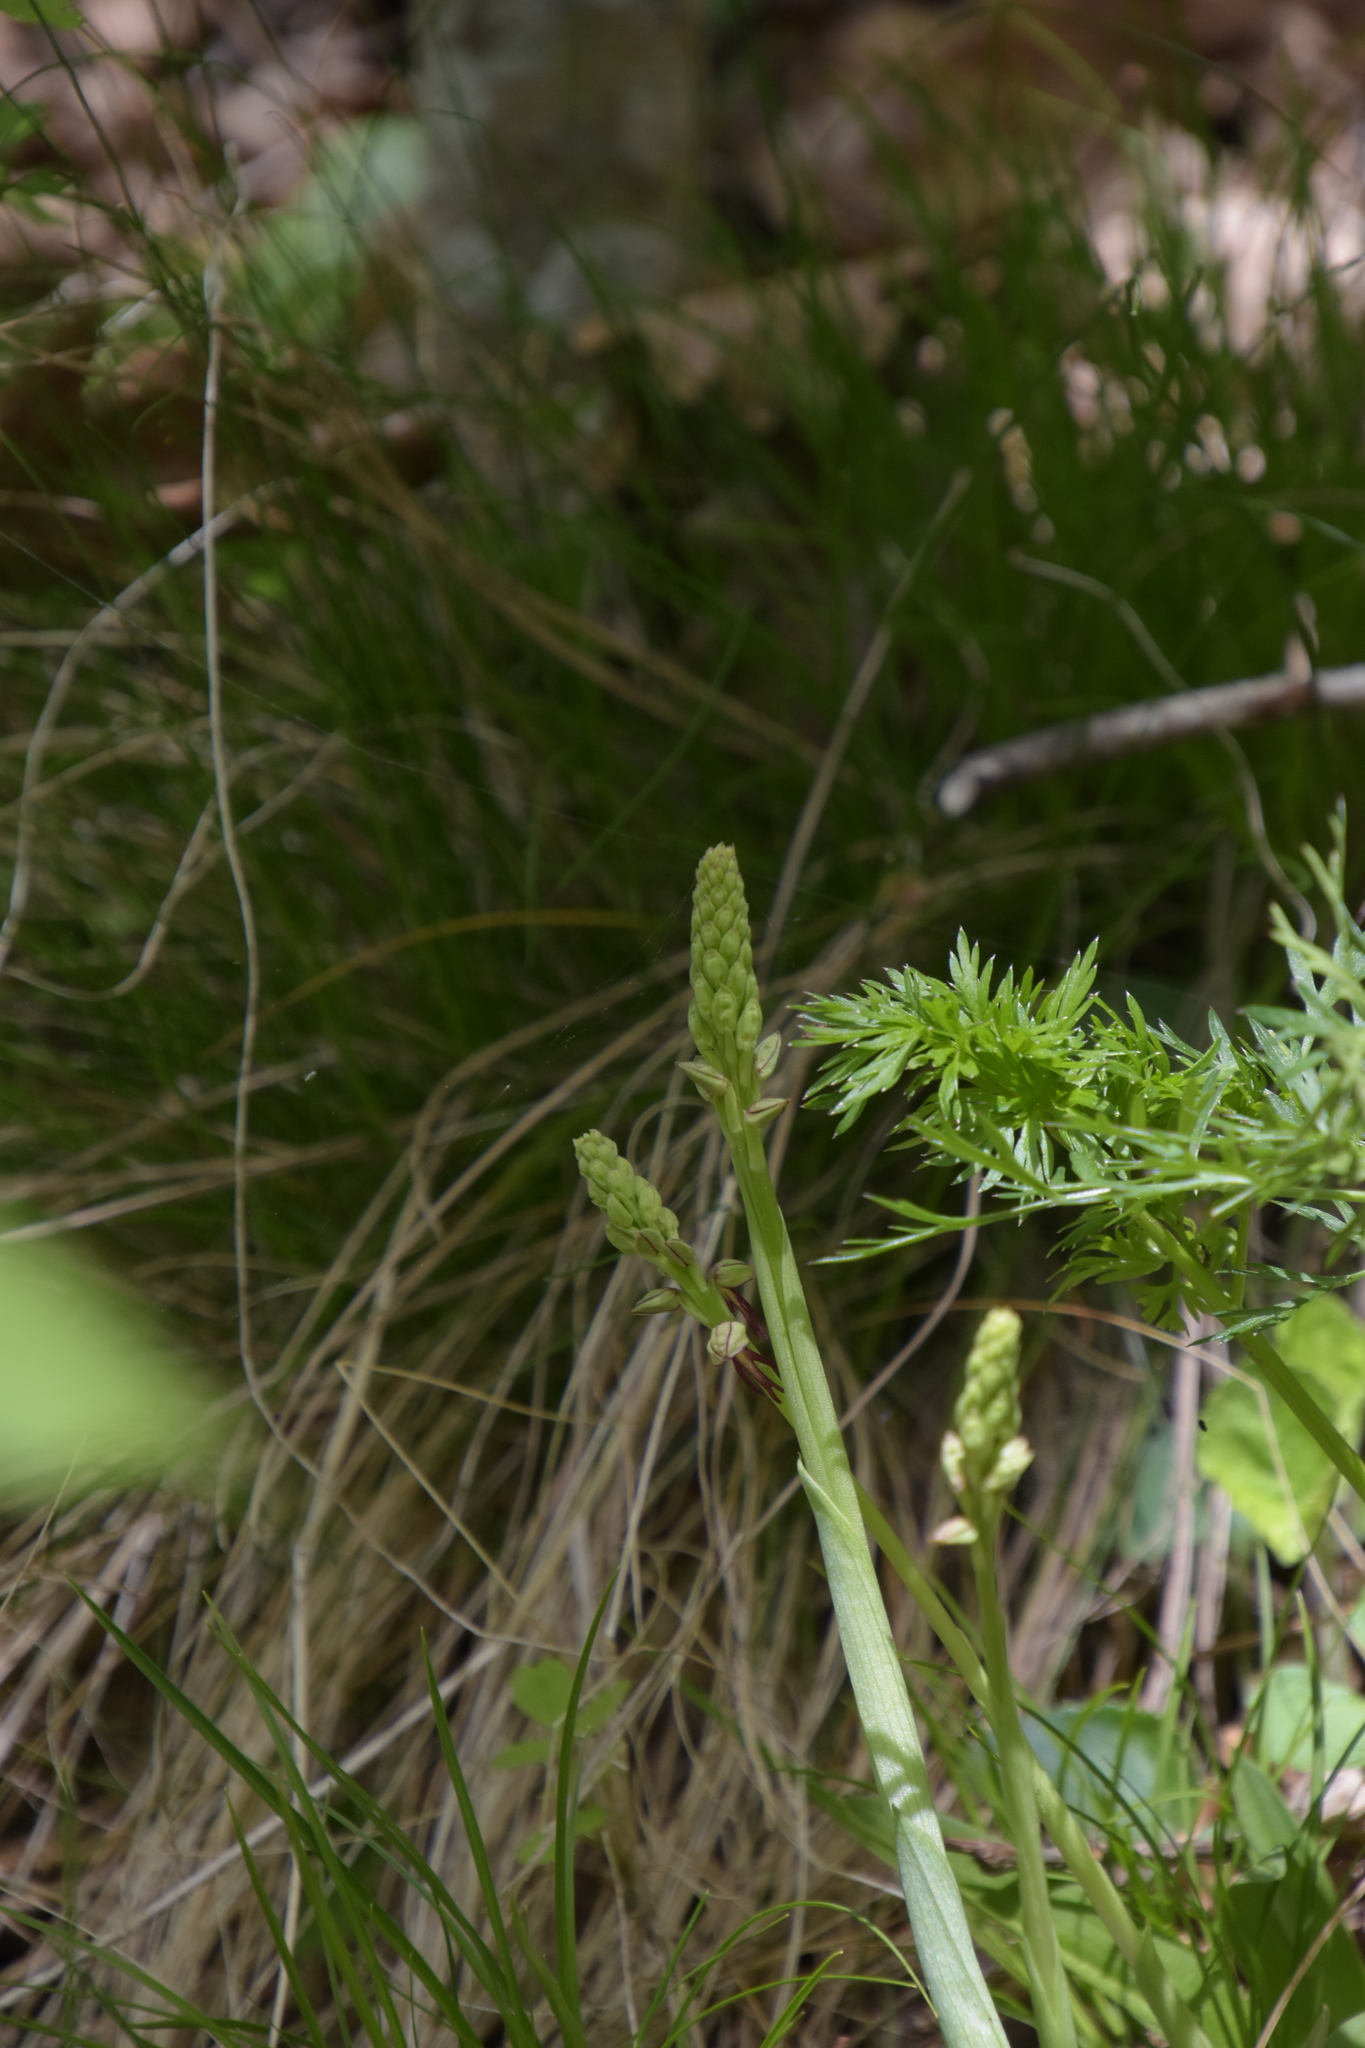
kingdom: Plantae
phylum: Tracheophyta
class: Liliopsida
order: Asparagales
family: Orchidaceae
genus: Orchis
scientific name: Orchis anthropophora
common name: Man orchid
